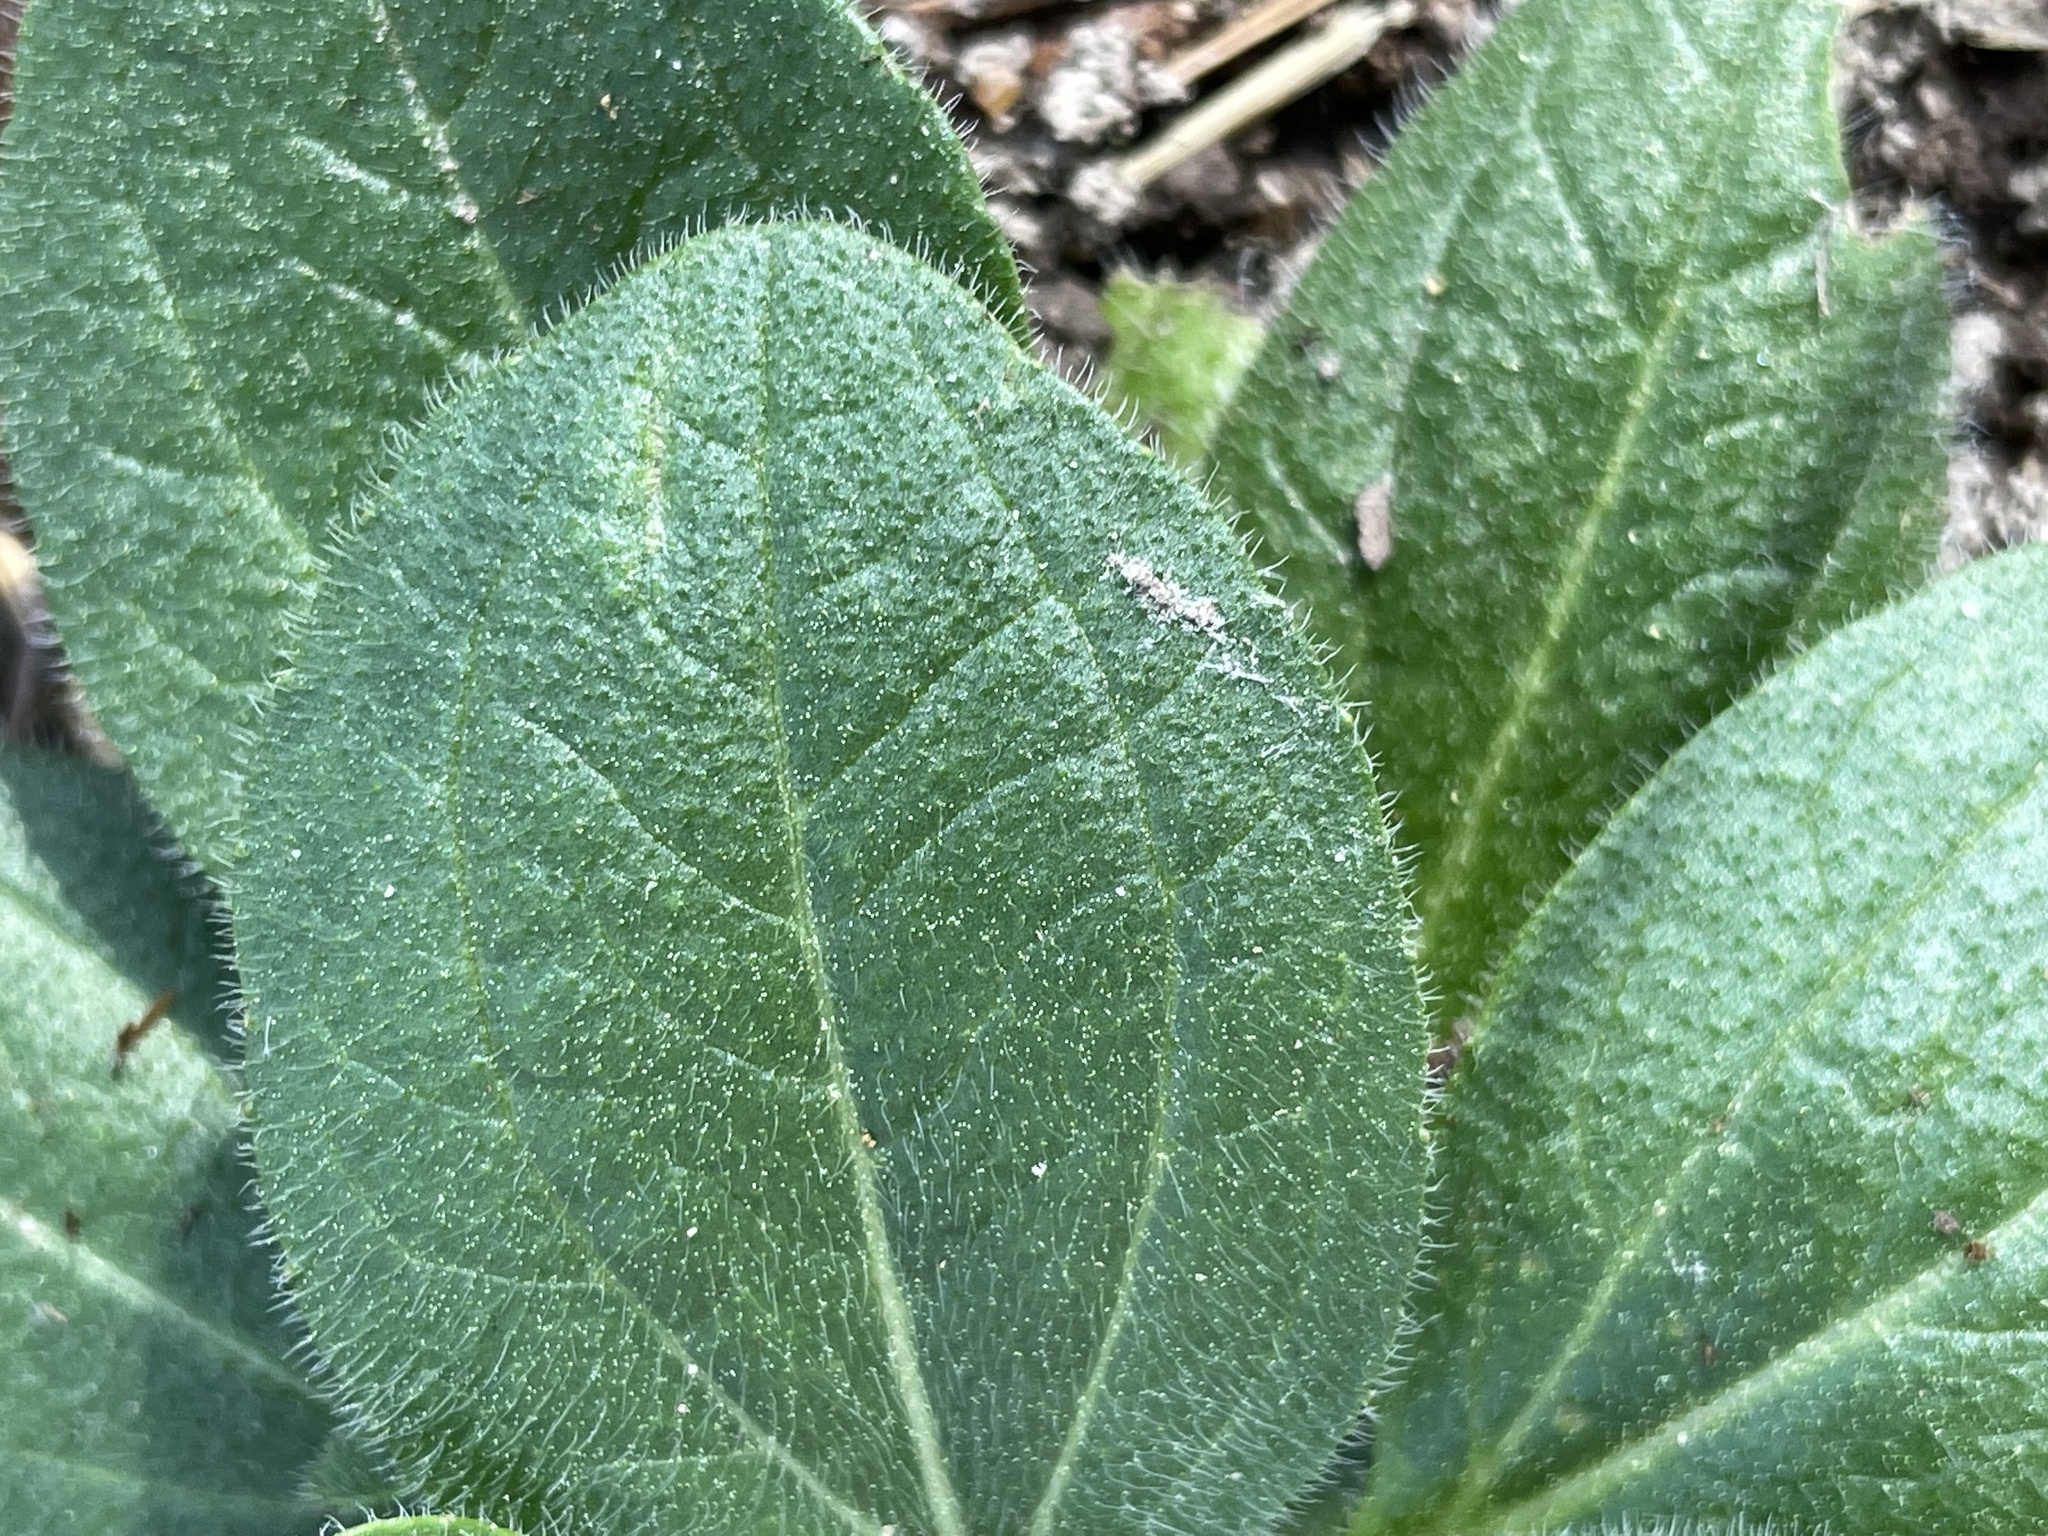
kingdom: Plantae
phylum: Tracheophyta
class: Magnoliopsida
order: Asterales
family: Asteraceae
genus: Rudbeckia
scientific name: Rudbeckia hirta
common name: Black-eyed-susan
